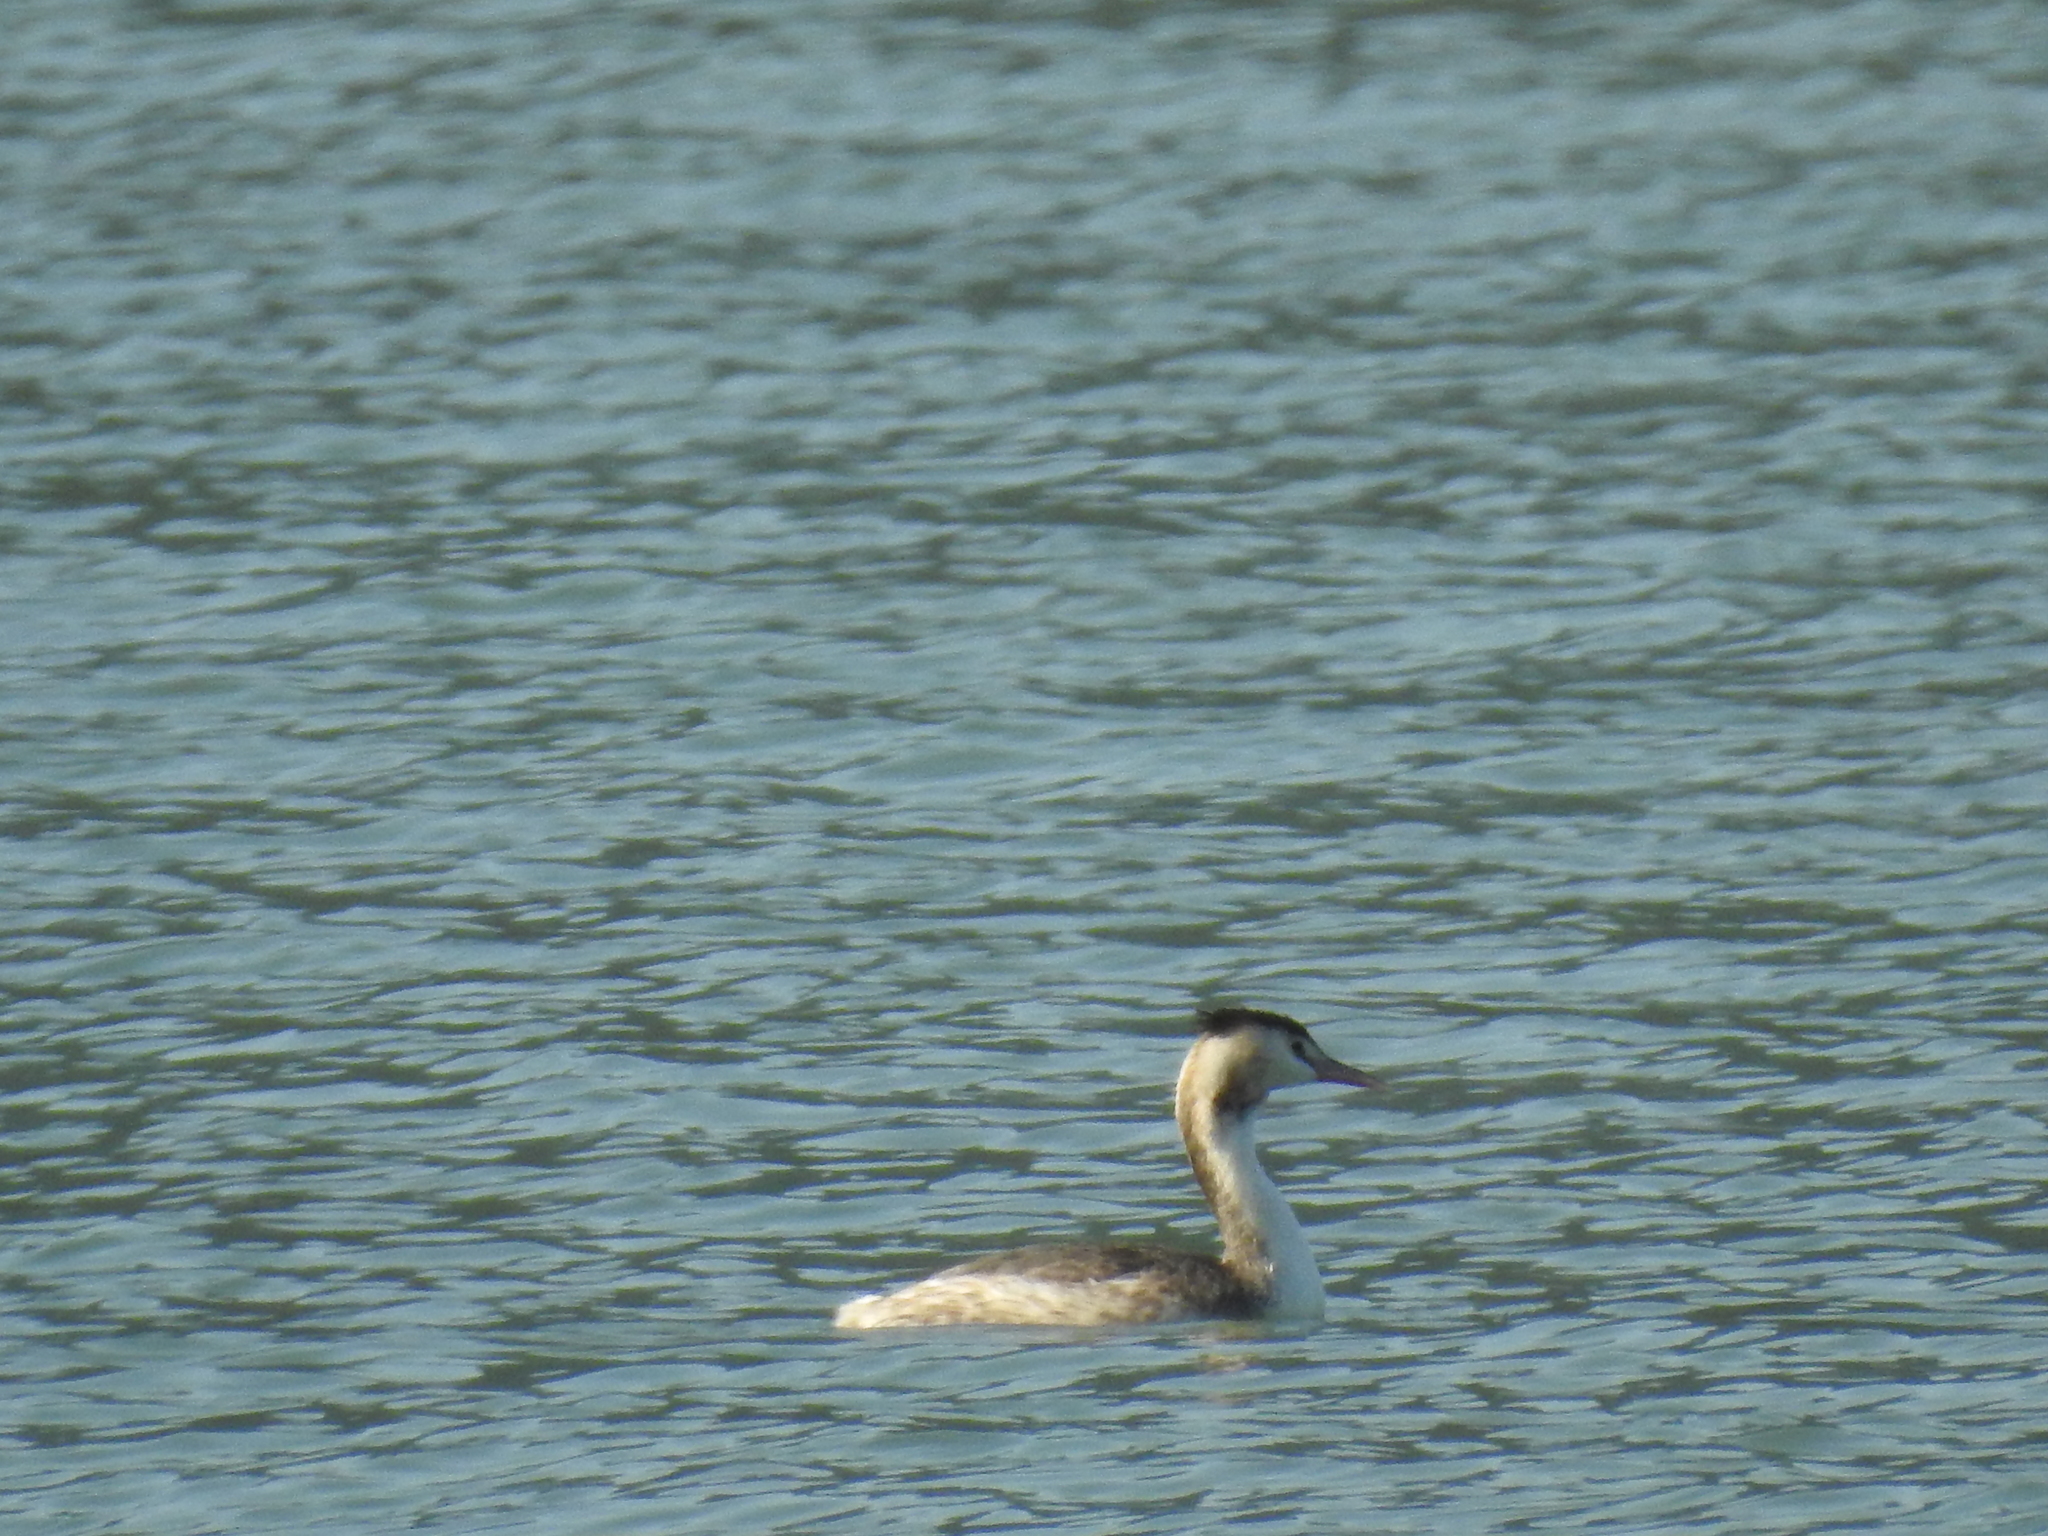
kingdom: Animalia
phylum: Chordata
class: Aves
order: Podicipediformes
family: Podicipedidae
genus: Podiceps
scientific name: Podiceps cristatus
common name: Great crested grebe
